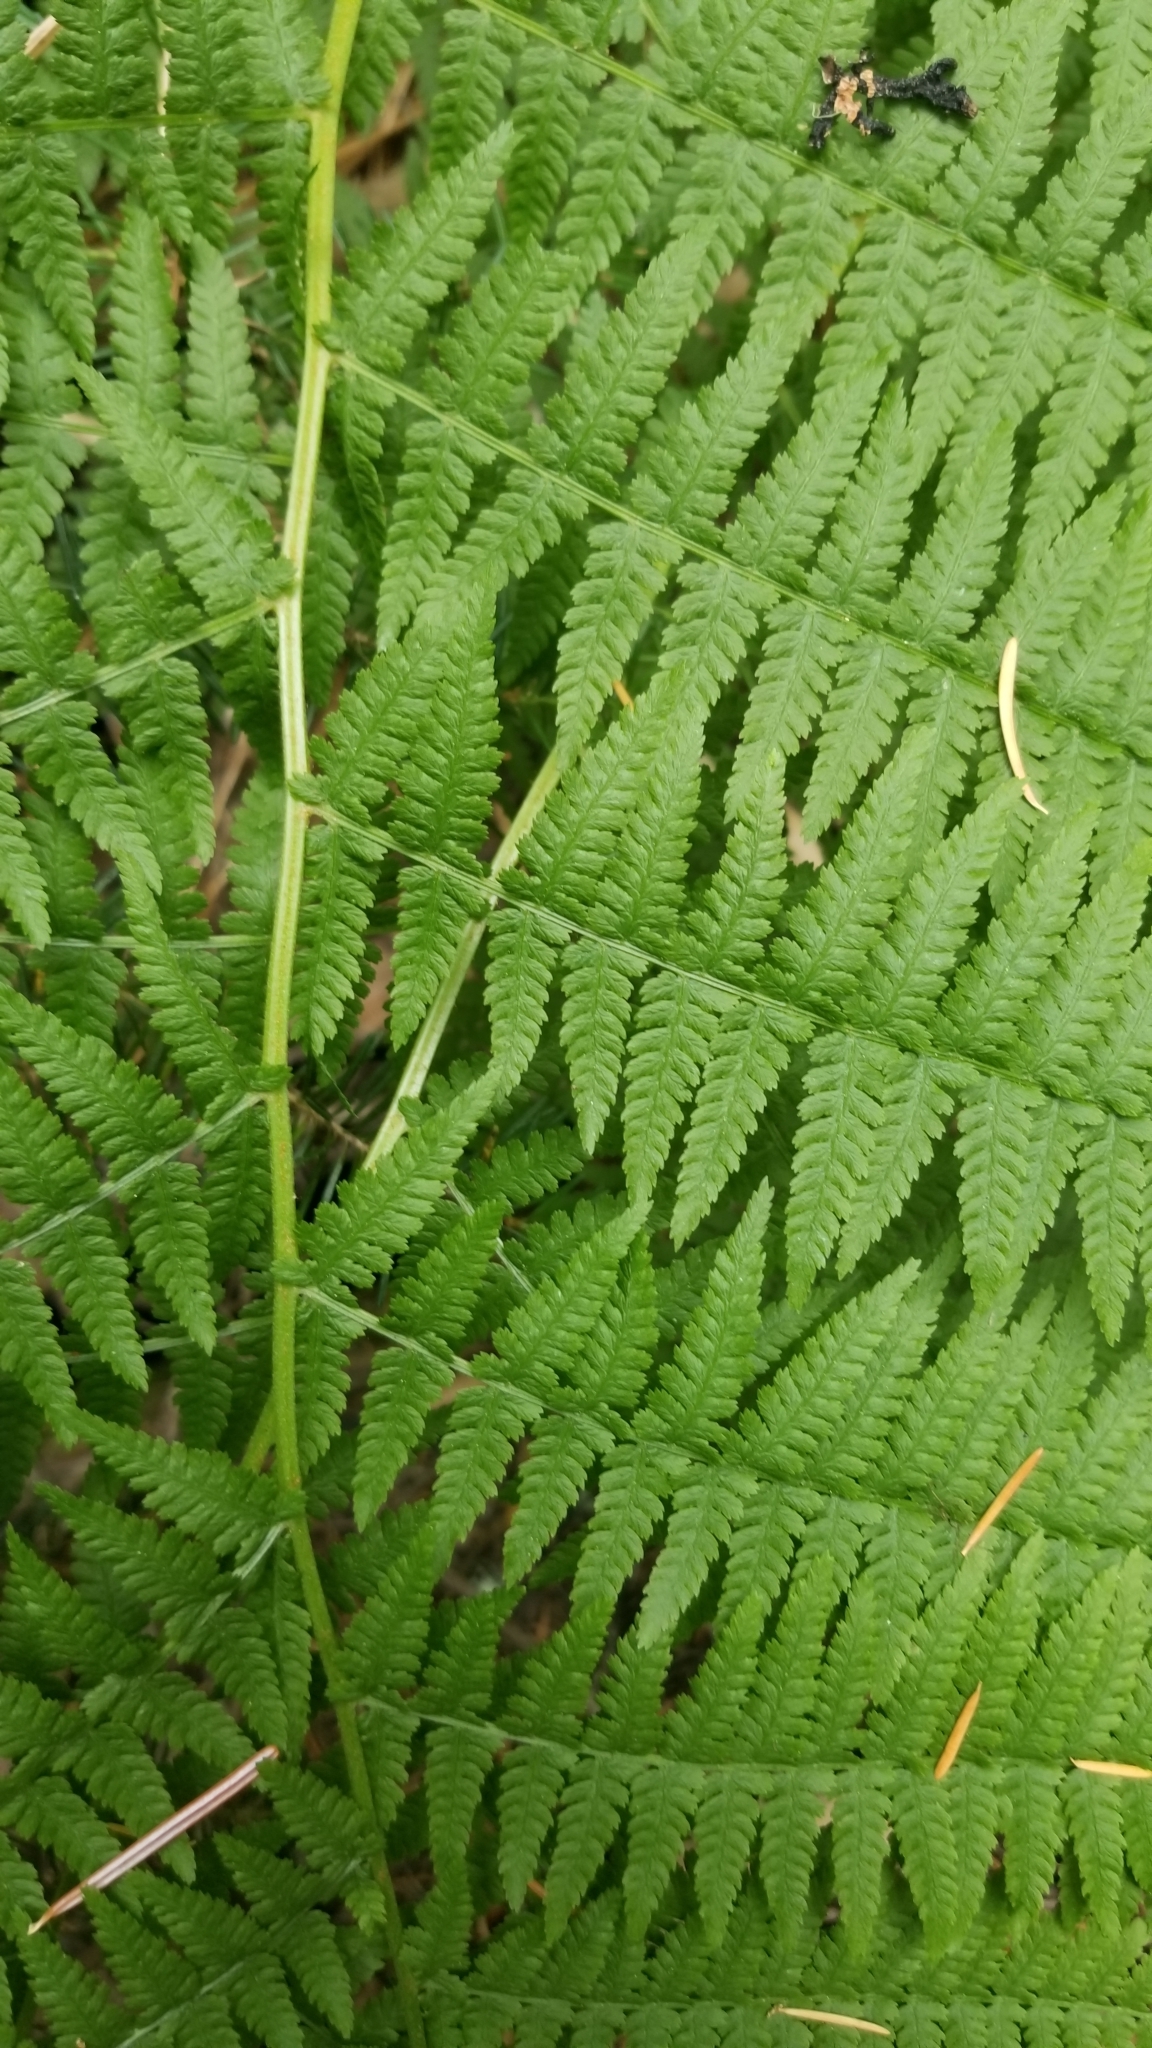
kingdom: Plantae
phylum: Tracheophyta
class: Polypodiopsida
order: Polypodiales
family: Athyriaceae
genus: Athyrium
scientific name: Athyrium filix-femina
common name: Lady fern
